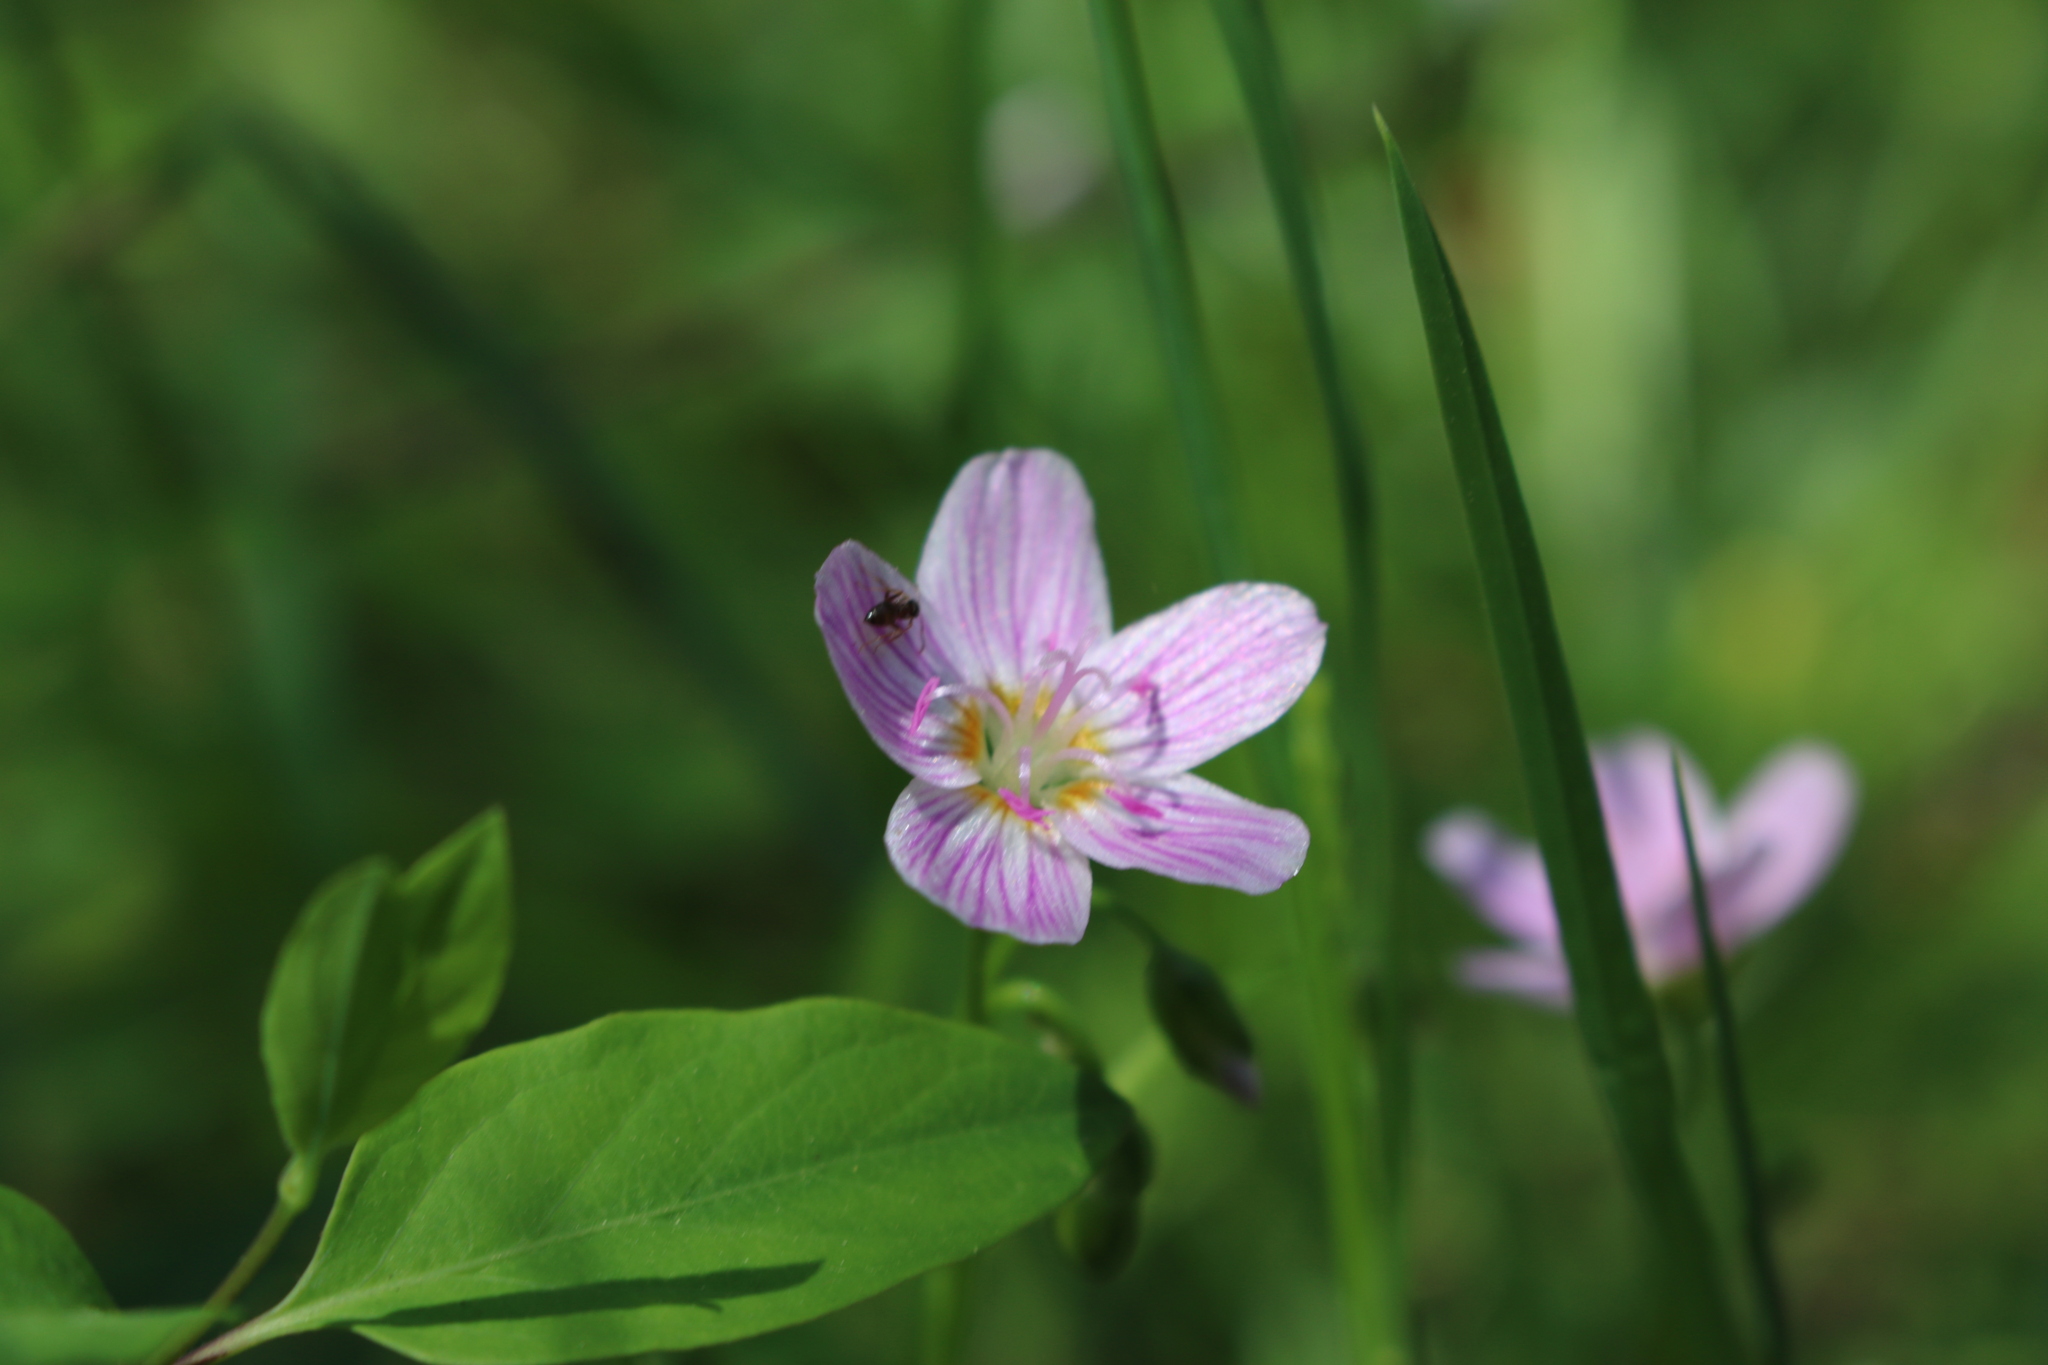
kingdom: Plantae
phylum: Tracheophyta
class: Magnoliopsida
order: Caryophyllales
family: Montiaceae
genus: Claytonia
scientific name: Claytonia virginica
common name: Virginia springbeauty
